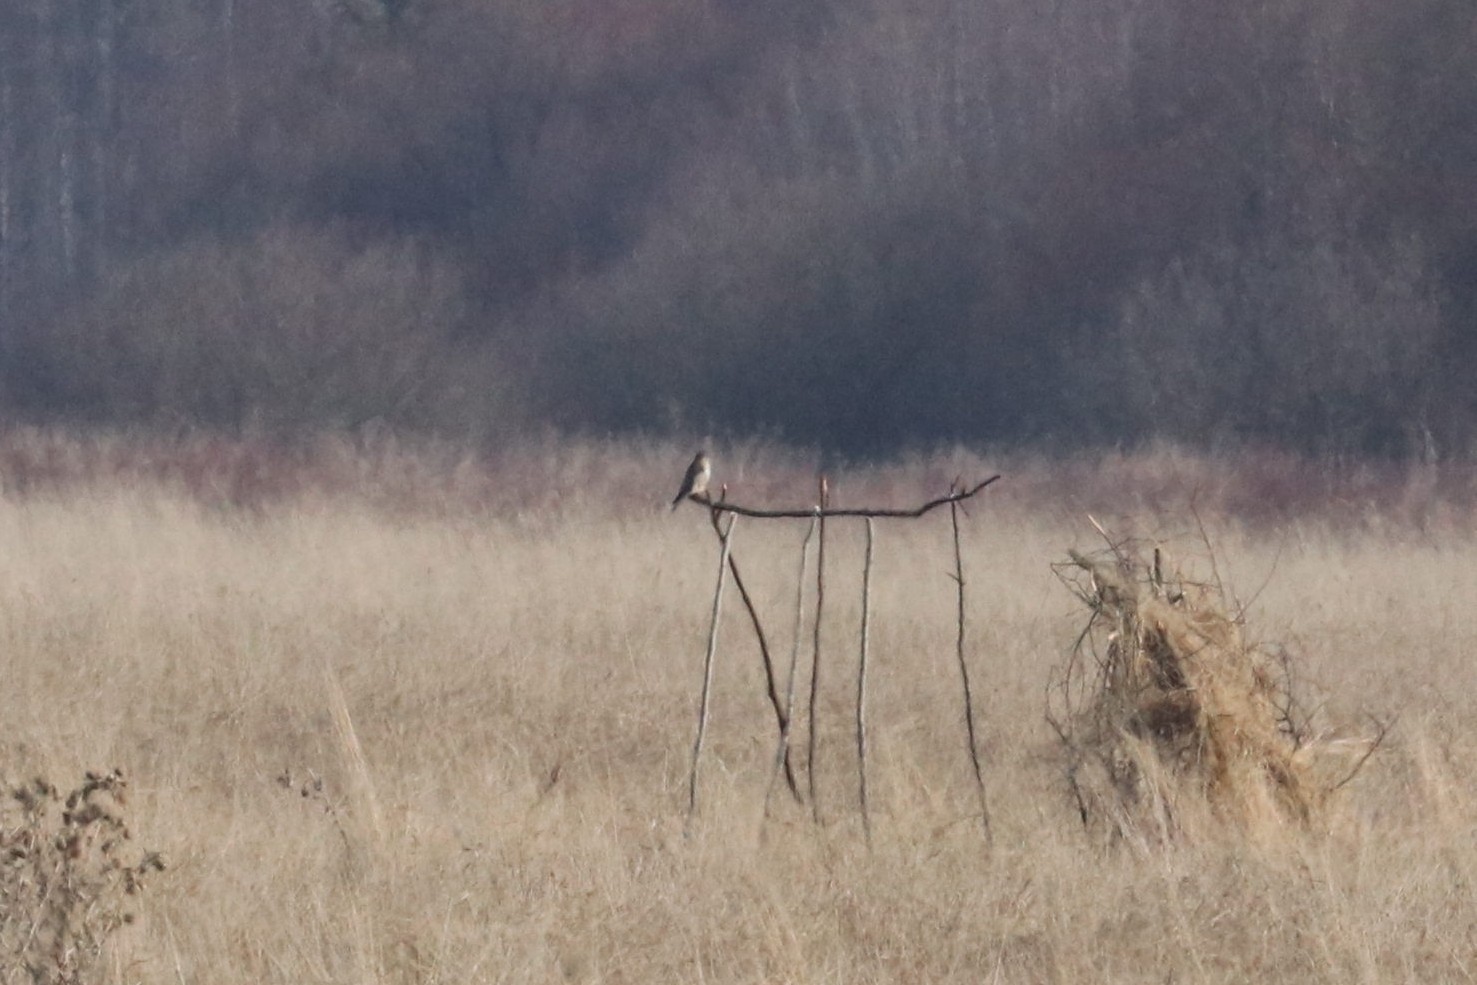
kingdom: Animalia
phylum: Chordata
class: Aves
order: Falconiformes
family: Falconidae
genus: Falco
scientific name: Falco columbarius
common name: Merlin
